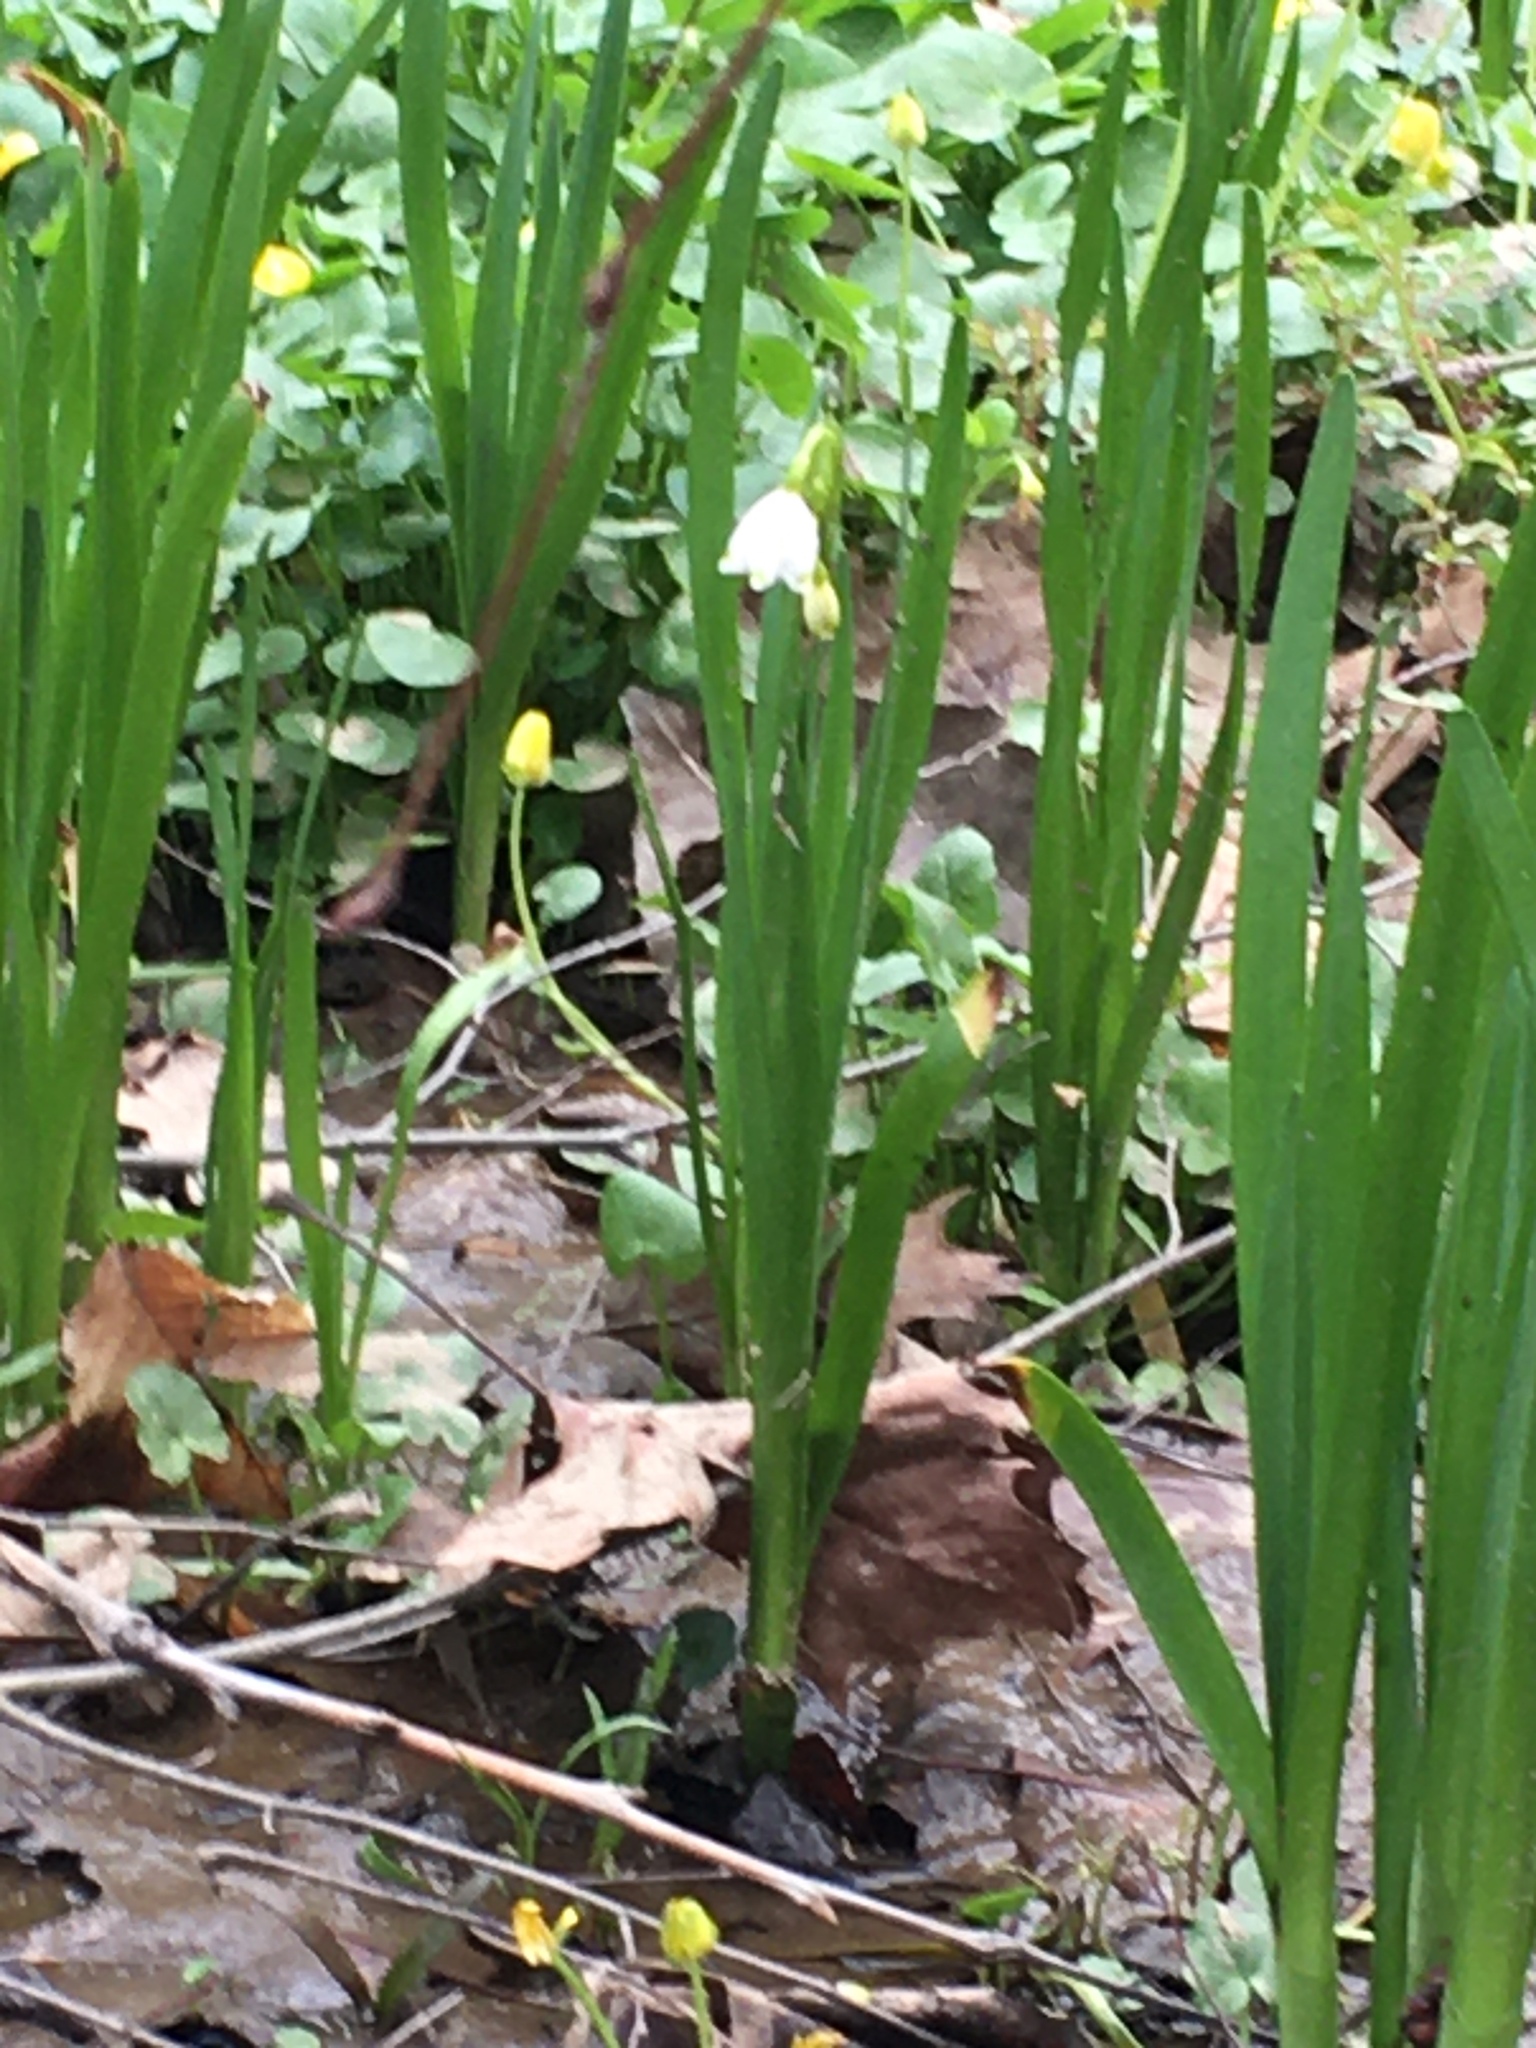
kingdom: Plantae
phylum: Tracheophyta
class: Liliopsida
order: Asparagales
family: Amaryllidaceae
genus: Leucojum
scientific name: Leucojum aestivum
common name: Summer snowflake
